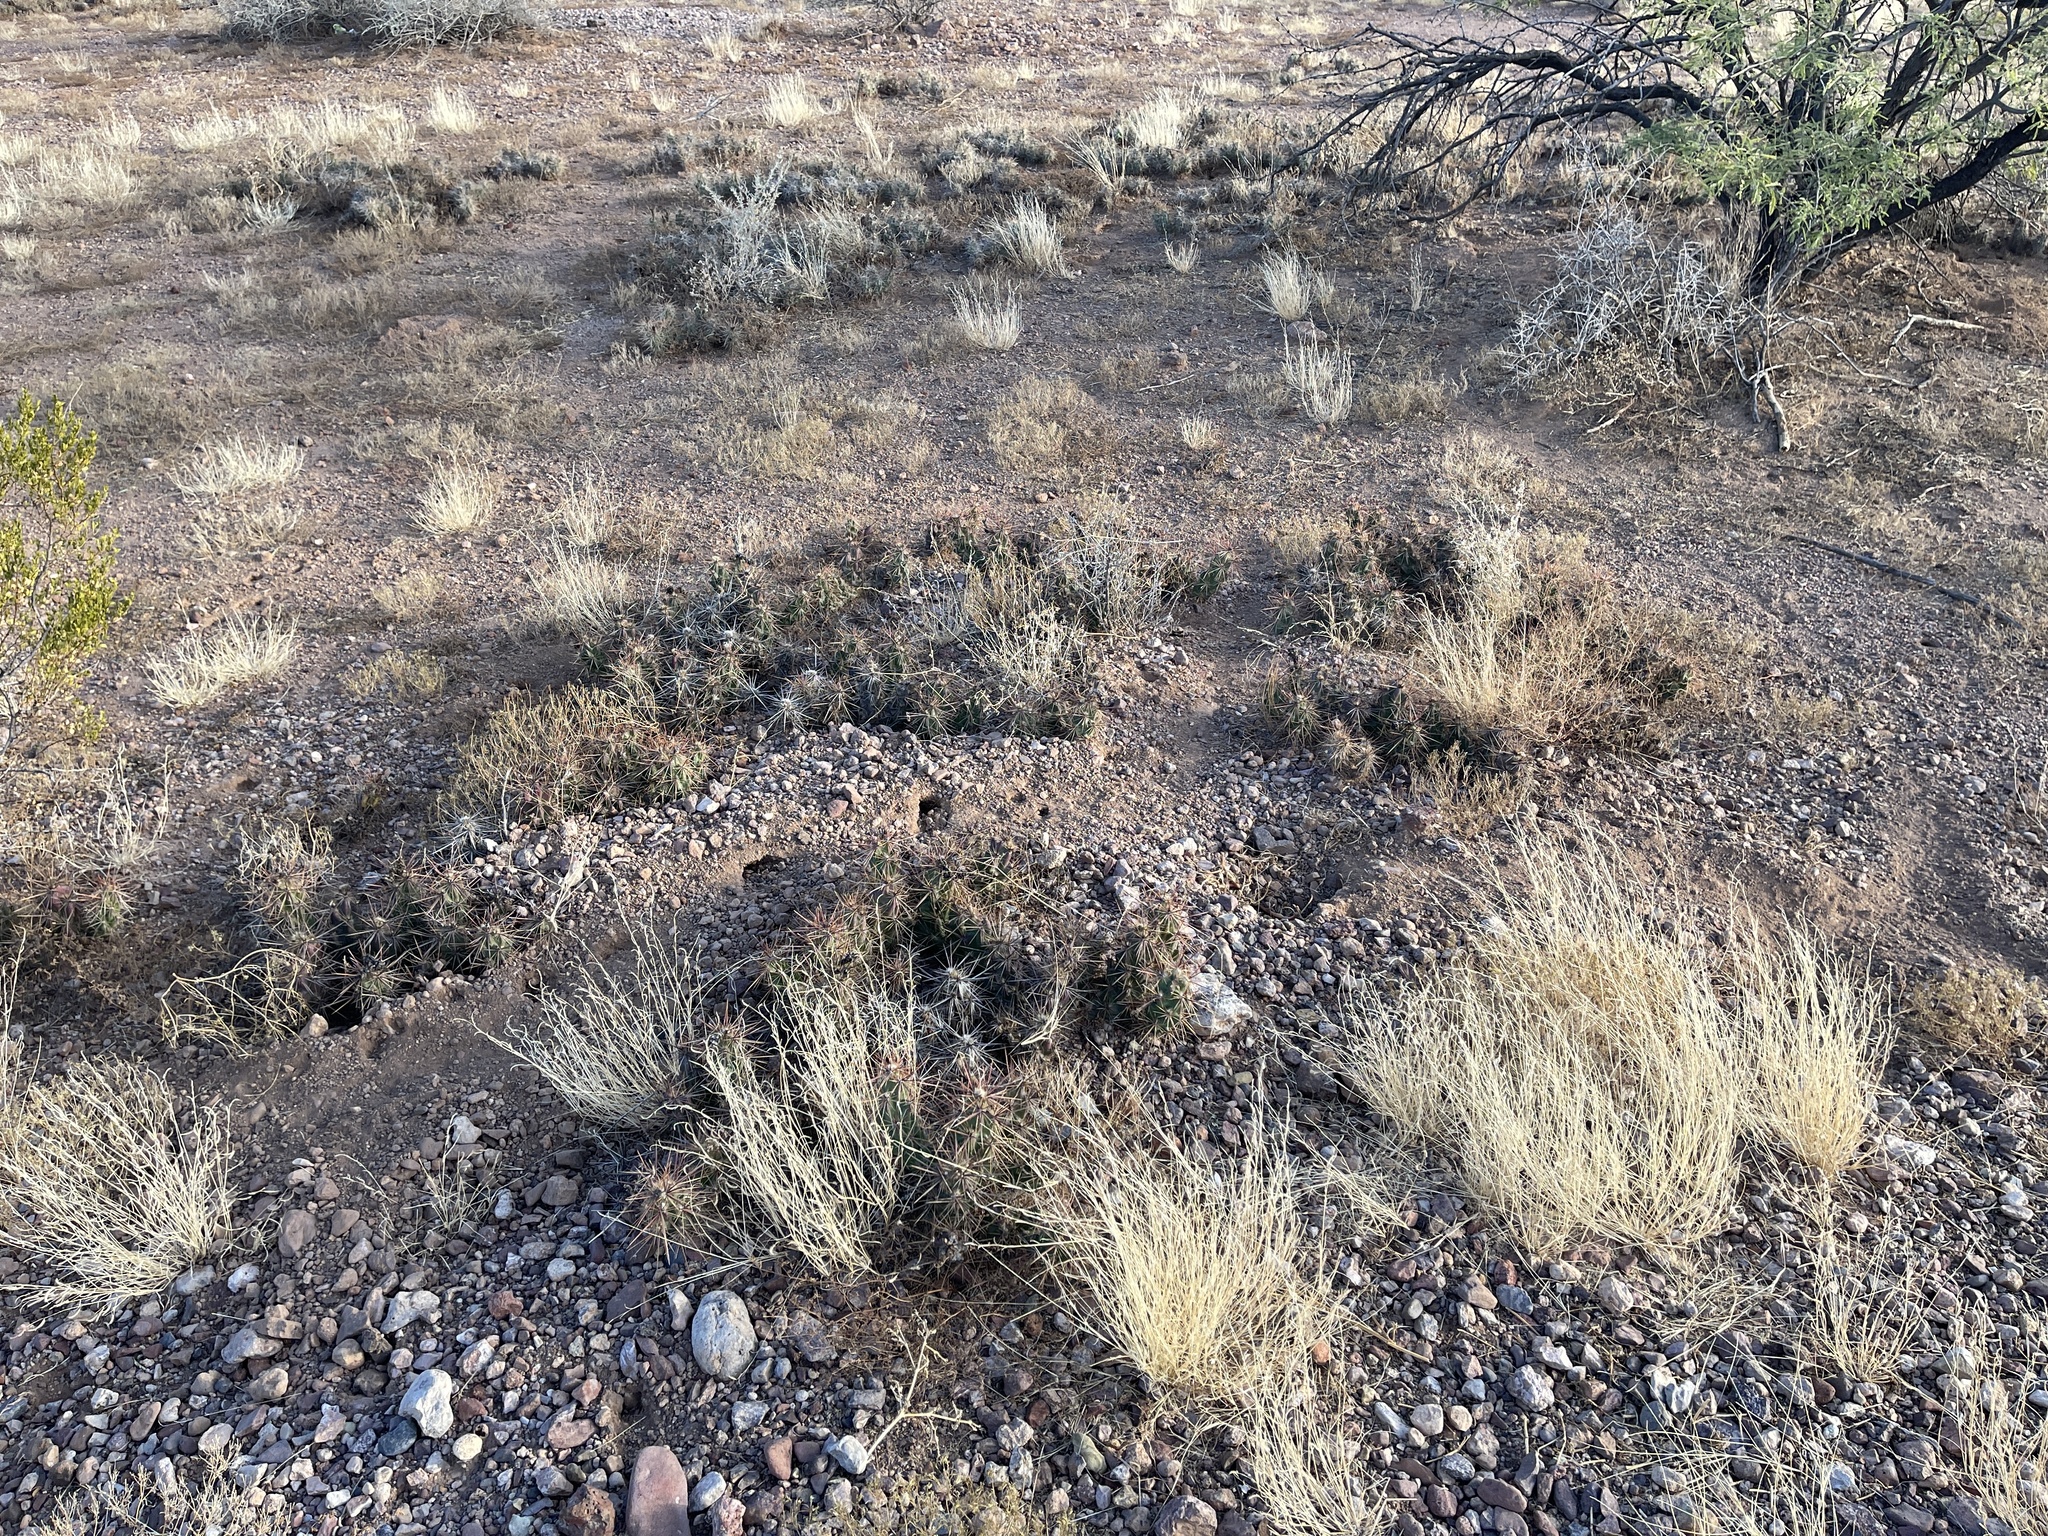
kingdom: Plantae
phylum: Tracheophyta
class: Magnoliopsida
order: Caryophyllales
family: Cactaceae
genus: Grusonia
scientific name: Grusonia emoryi
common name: Stanly's club cholla
